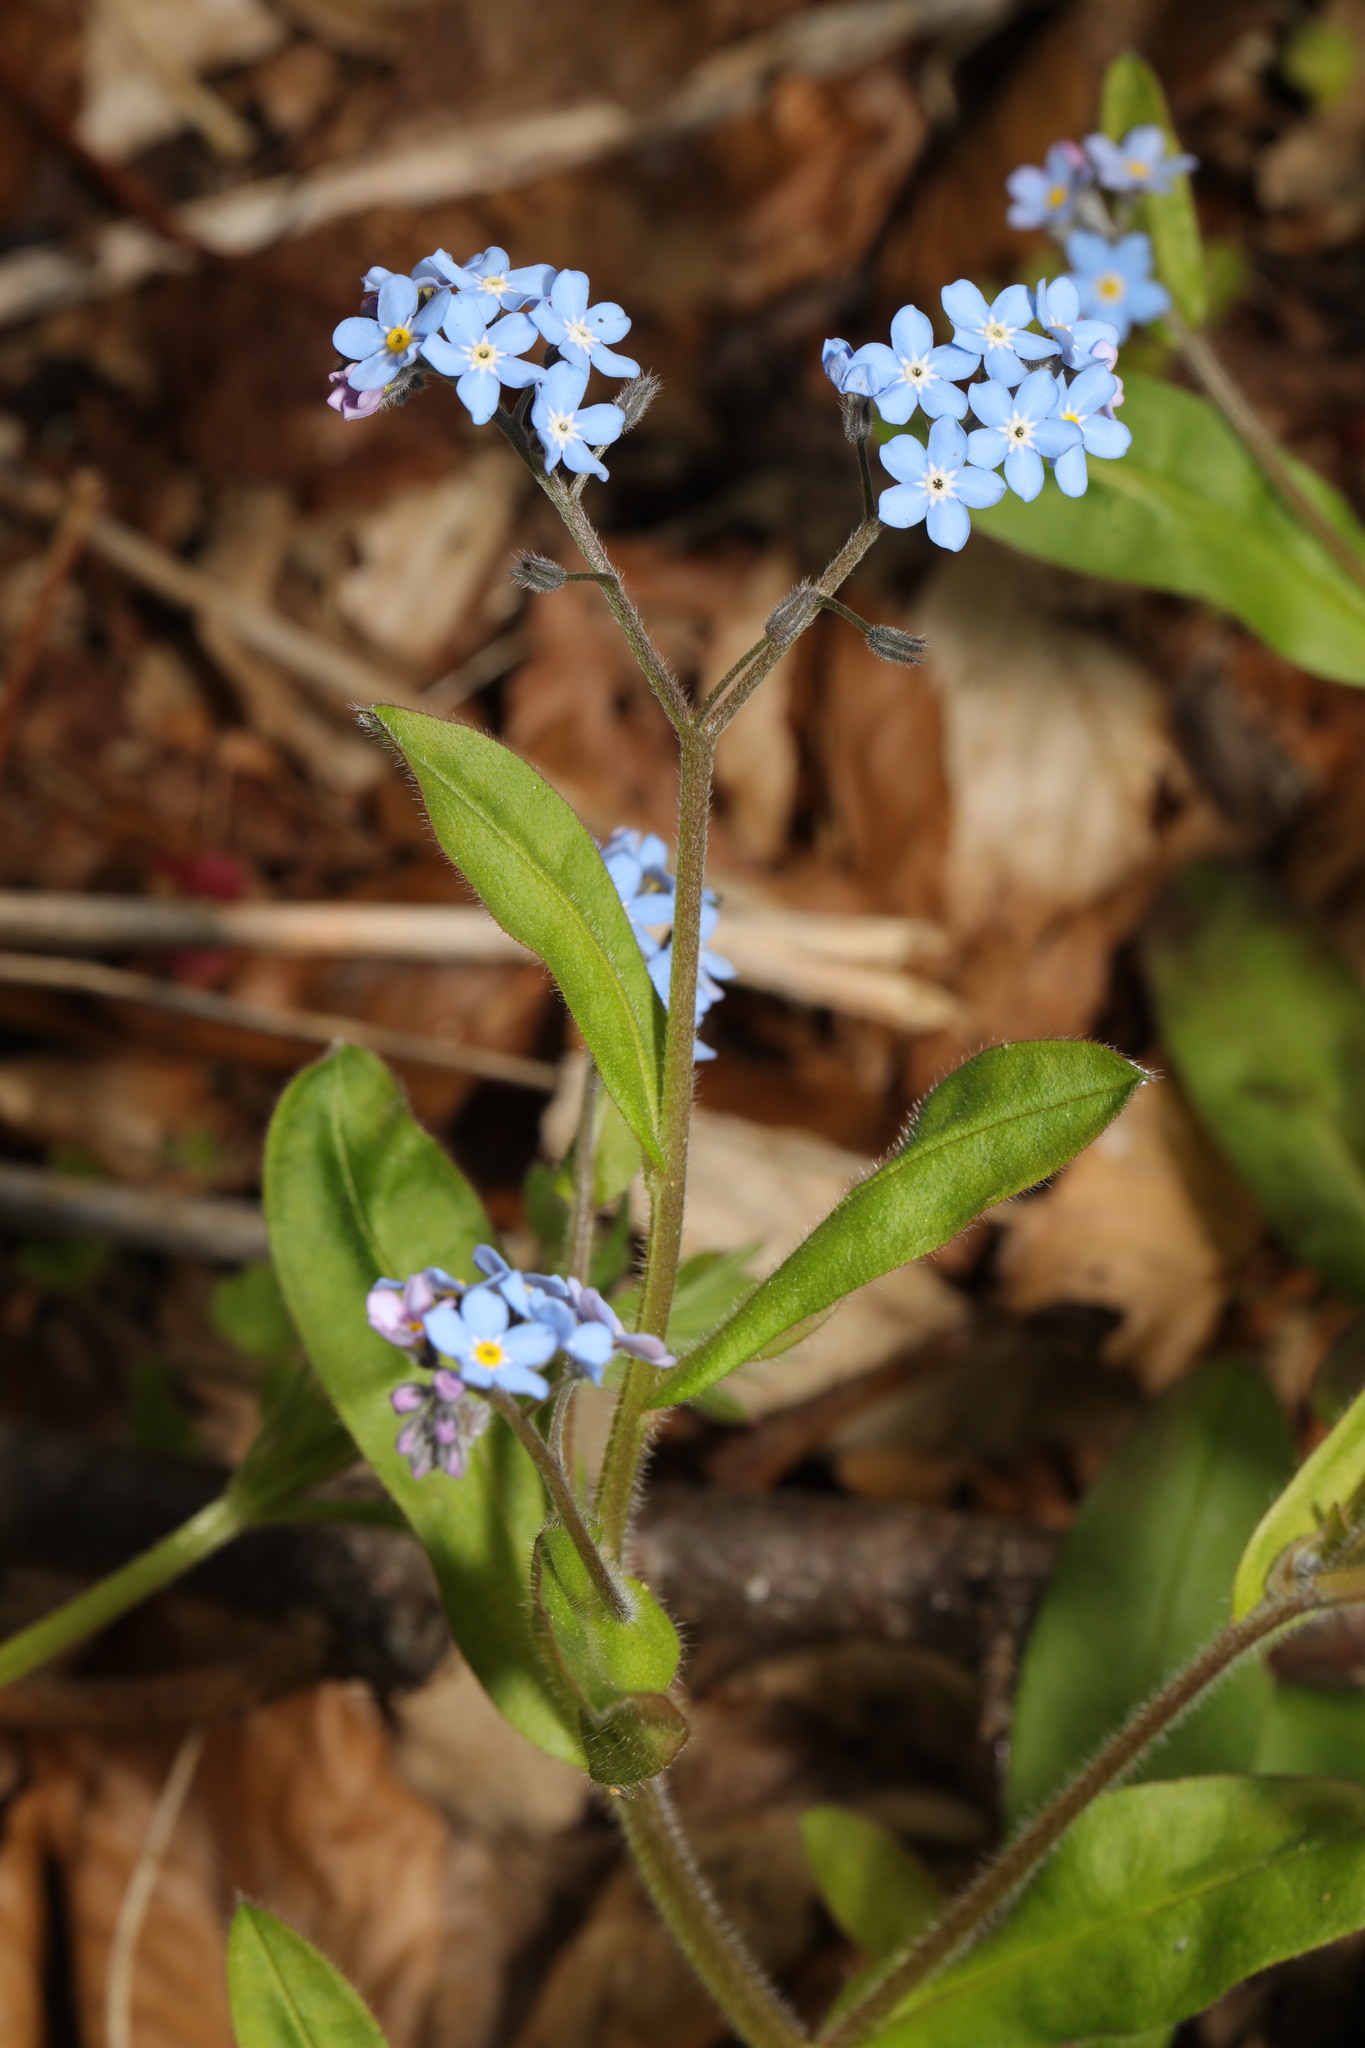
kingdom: Plantae
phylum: Tracheophyta
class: Magnoliopsida
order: Boraginales
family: Boraginaceae
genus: Myosotis
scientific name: Myosotis sylvatica
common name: Wood forget-me-not
